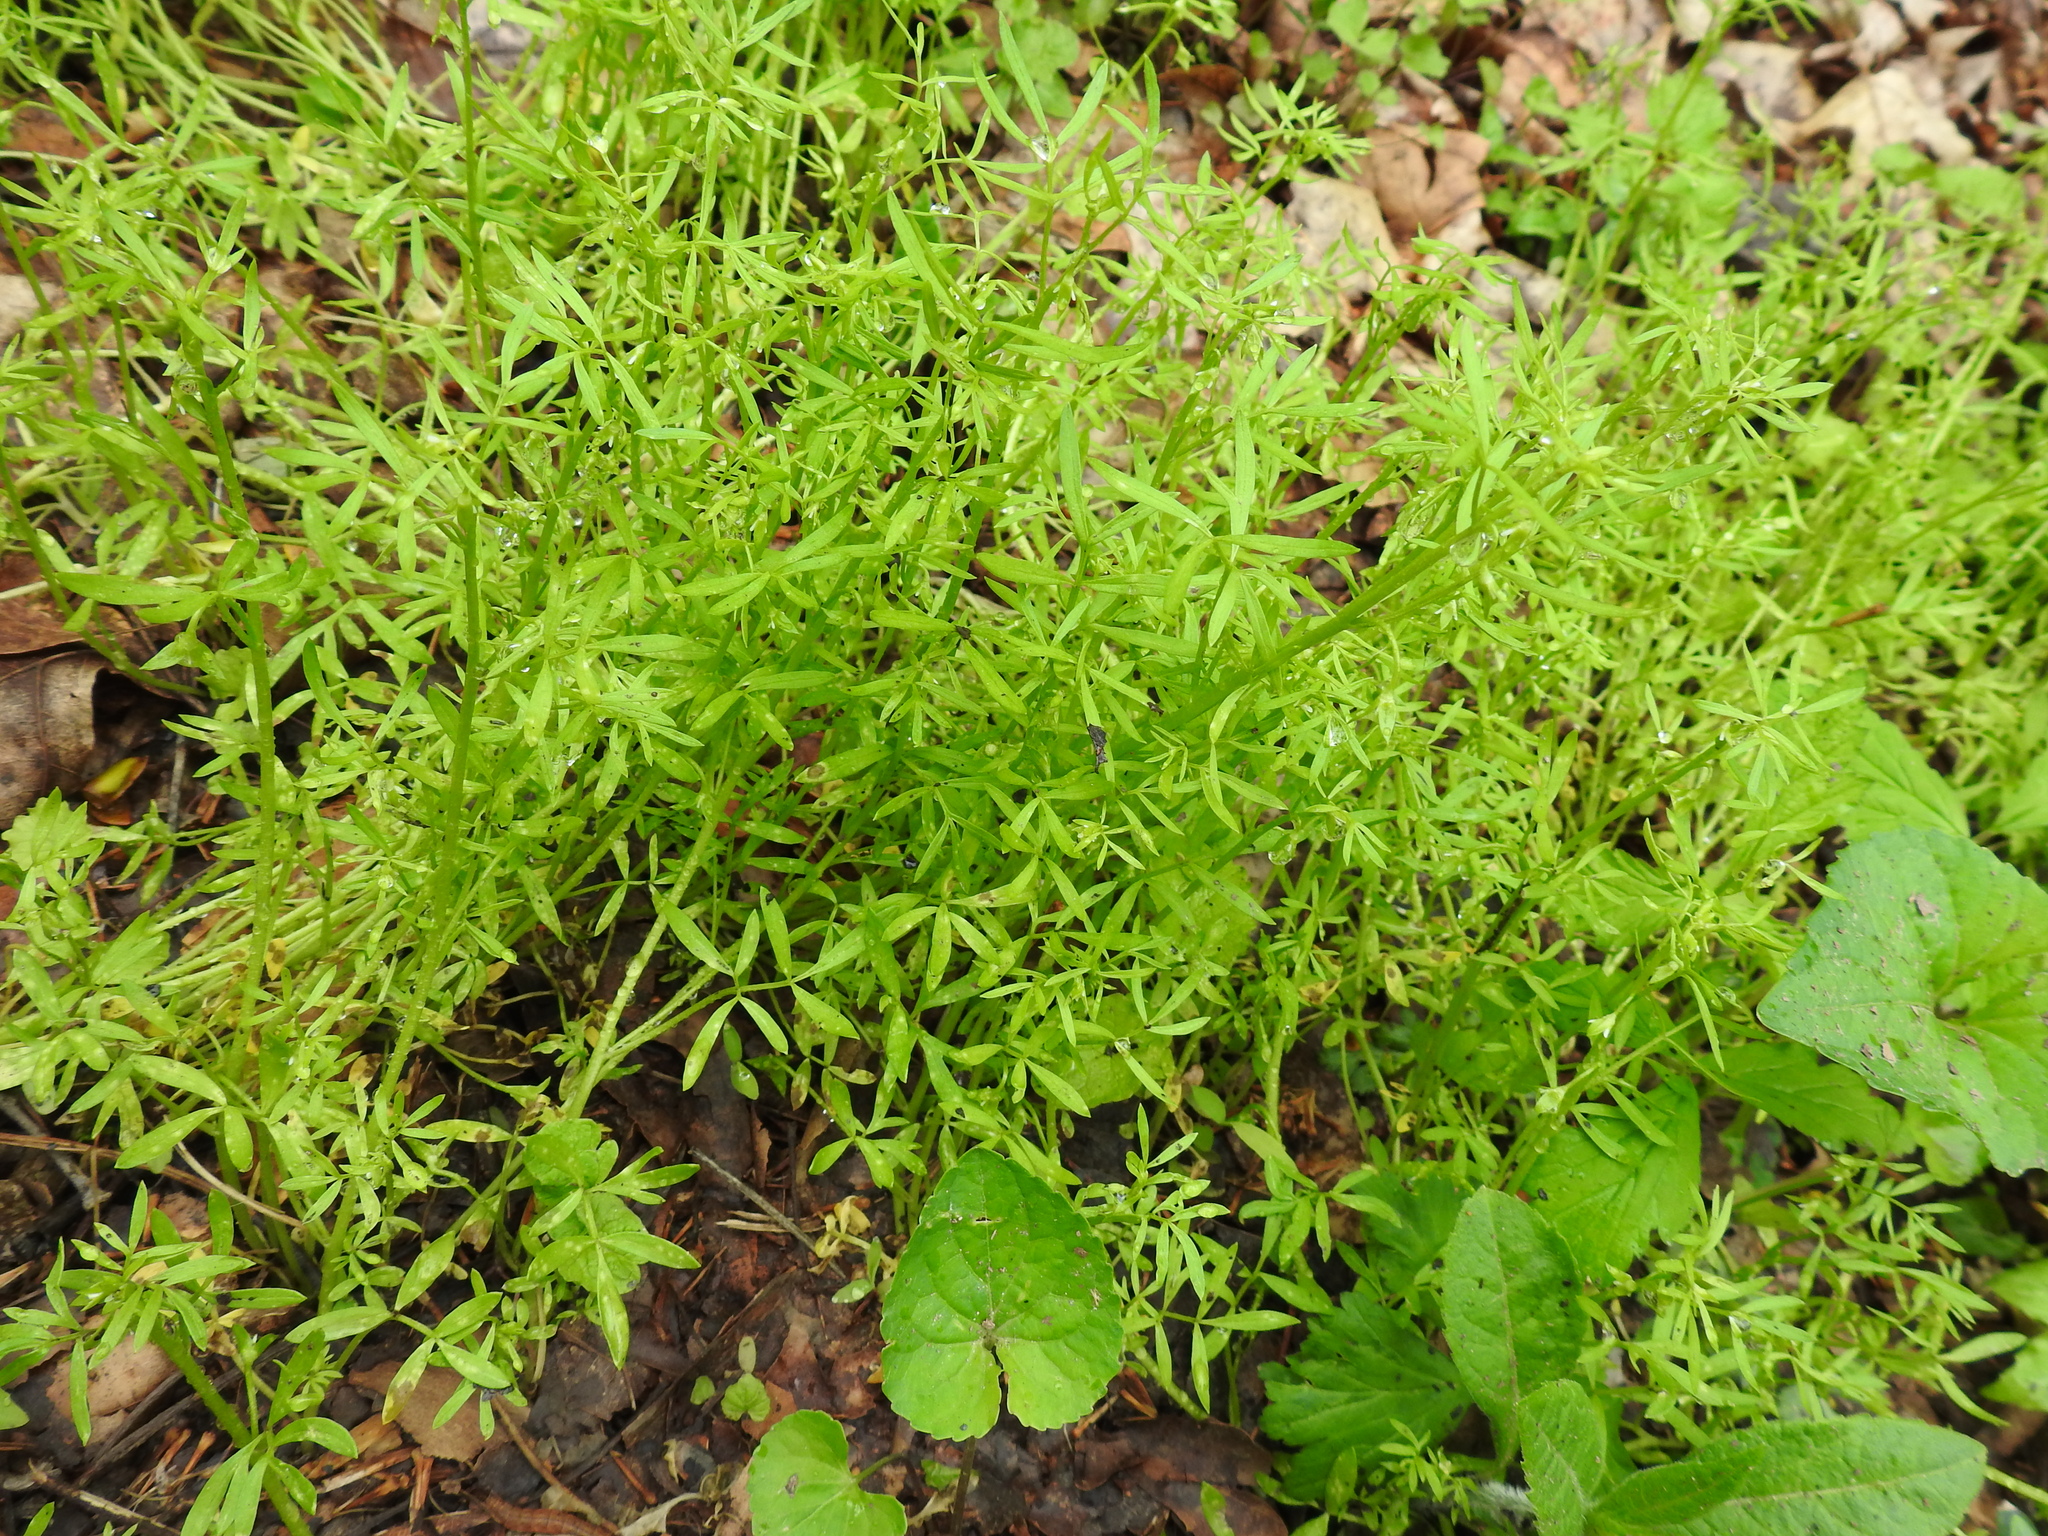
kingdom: Plantae
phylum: Tracheophyta
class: Magnoliopsida
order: Brassicales
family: Limnanthaceae
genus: Floerkea
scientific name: Floerkea proserpinacoides
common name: False mermaid
